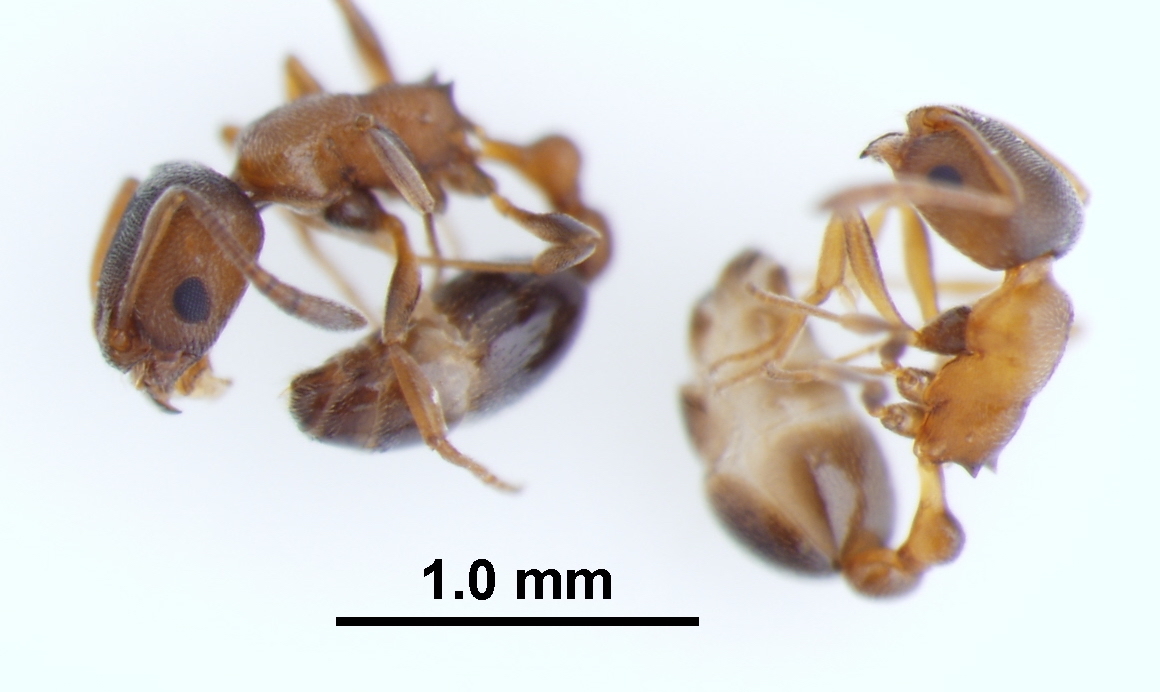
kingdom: Animalia
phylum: Arthropoda
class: Insecta
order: Hymenoptera
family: Formicidae
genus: Cardiocondyla
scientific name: Cardiocondyla mauritanica
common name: Sneaking ant
